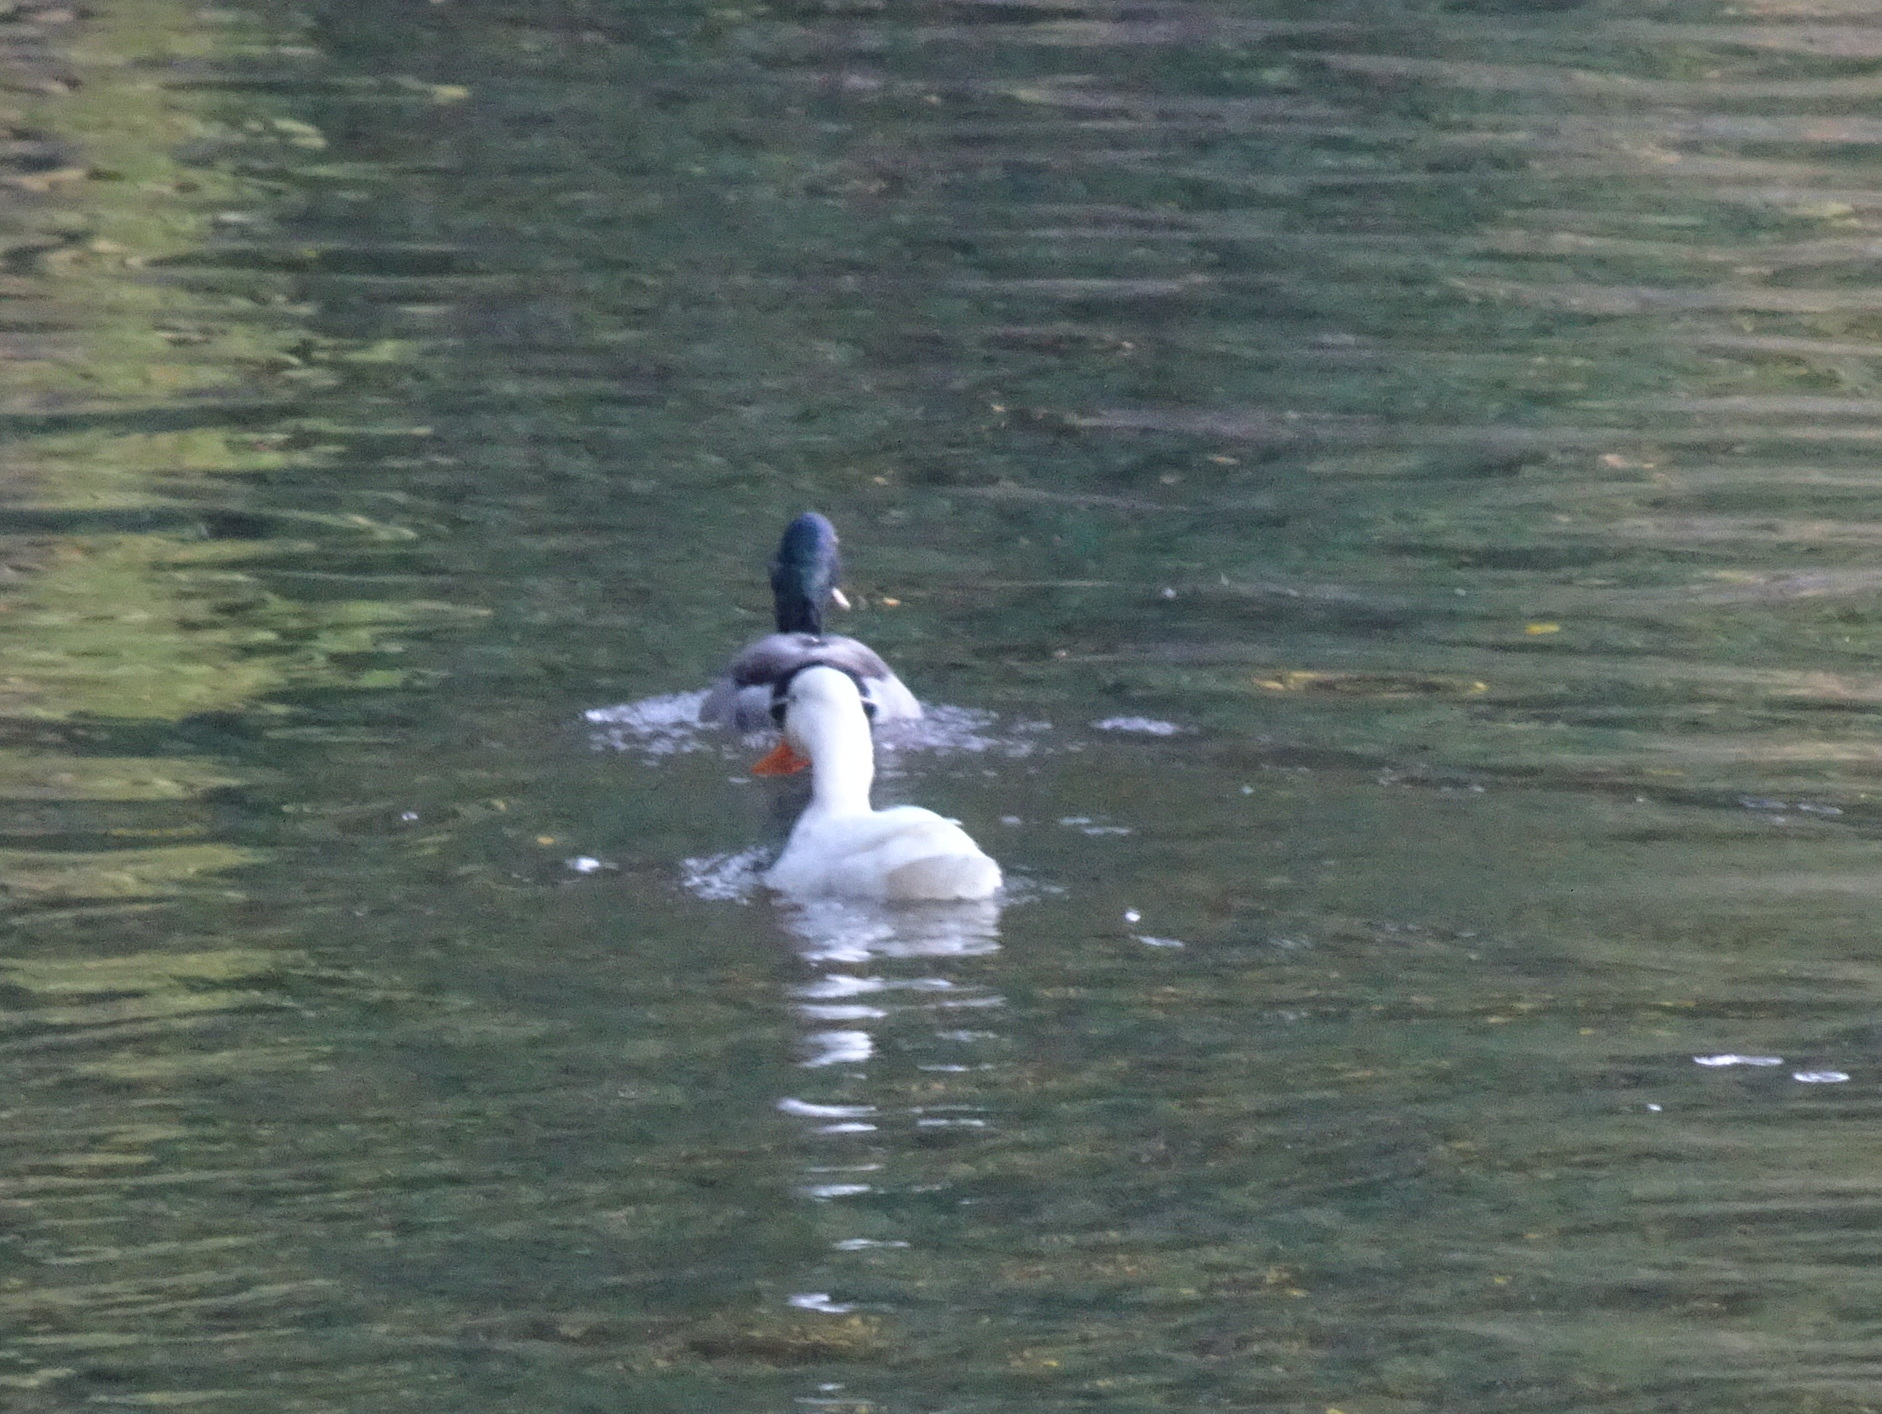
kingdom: Animalia
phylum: Chordata
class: Aves
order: Anseriformes
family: Anatidae
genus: Anas
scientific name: Anas platyrhynchos
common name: Mallard
